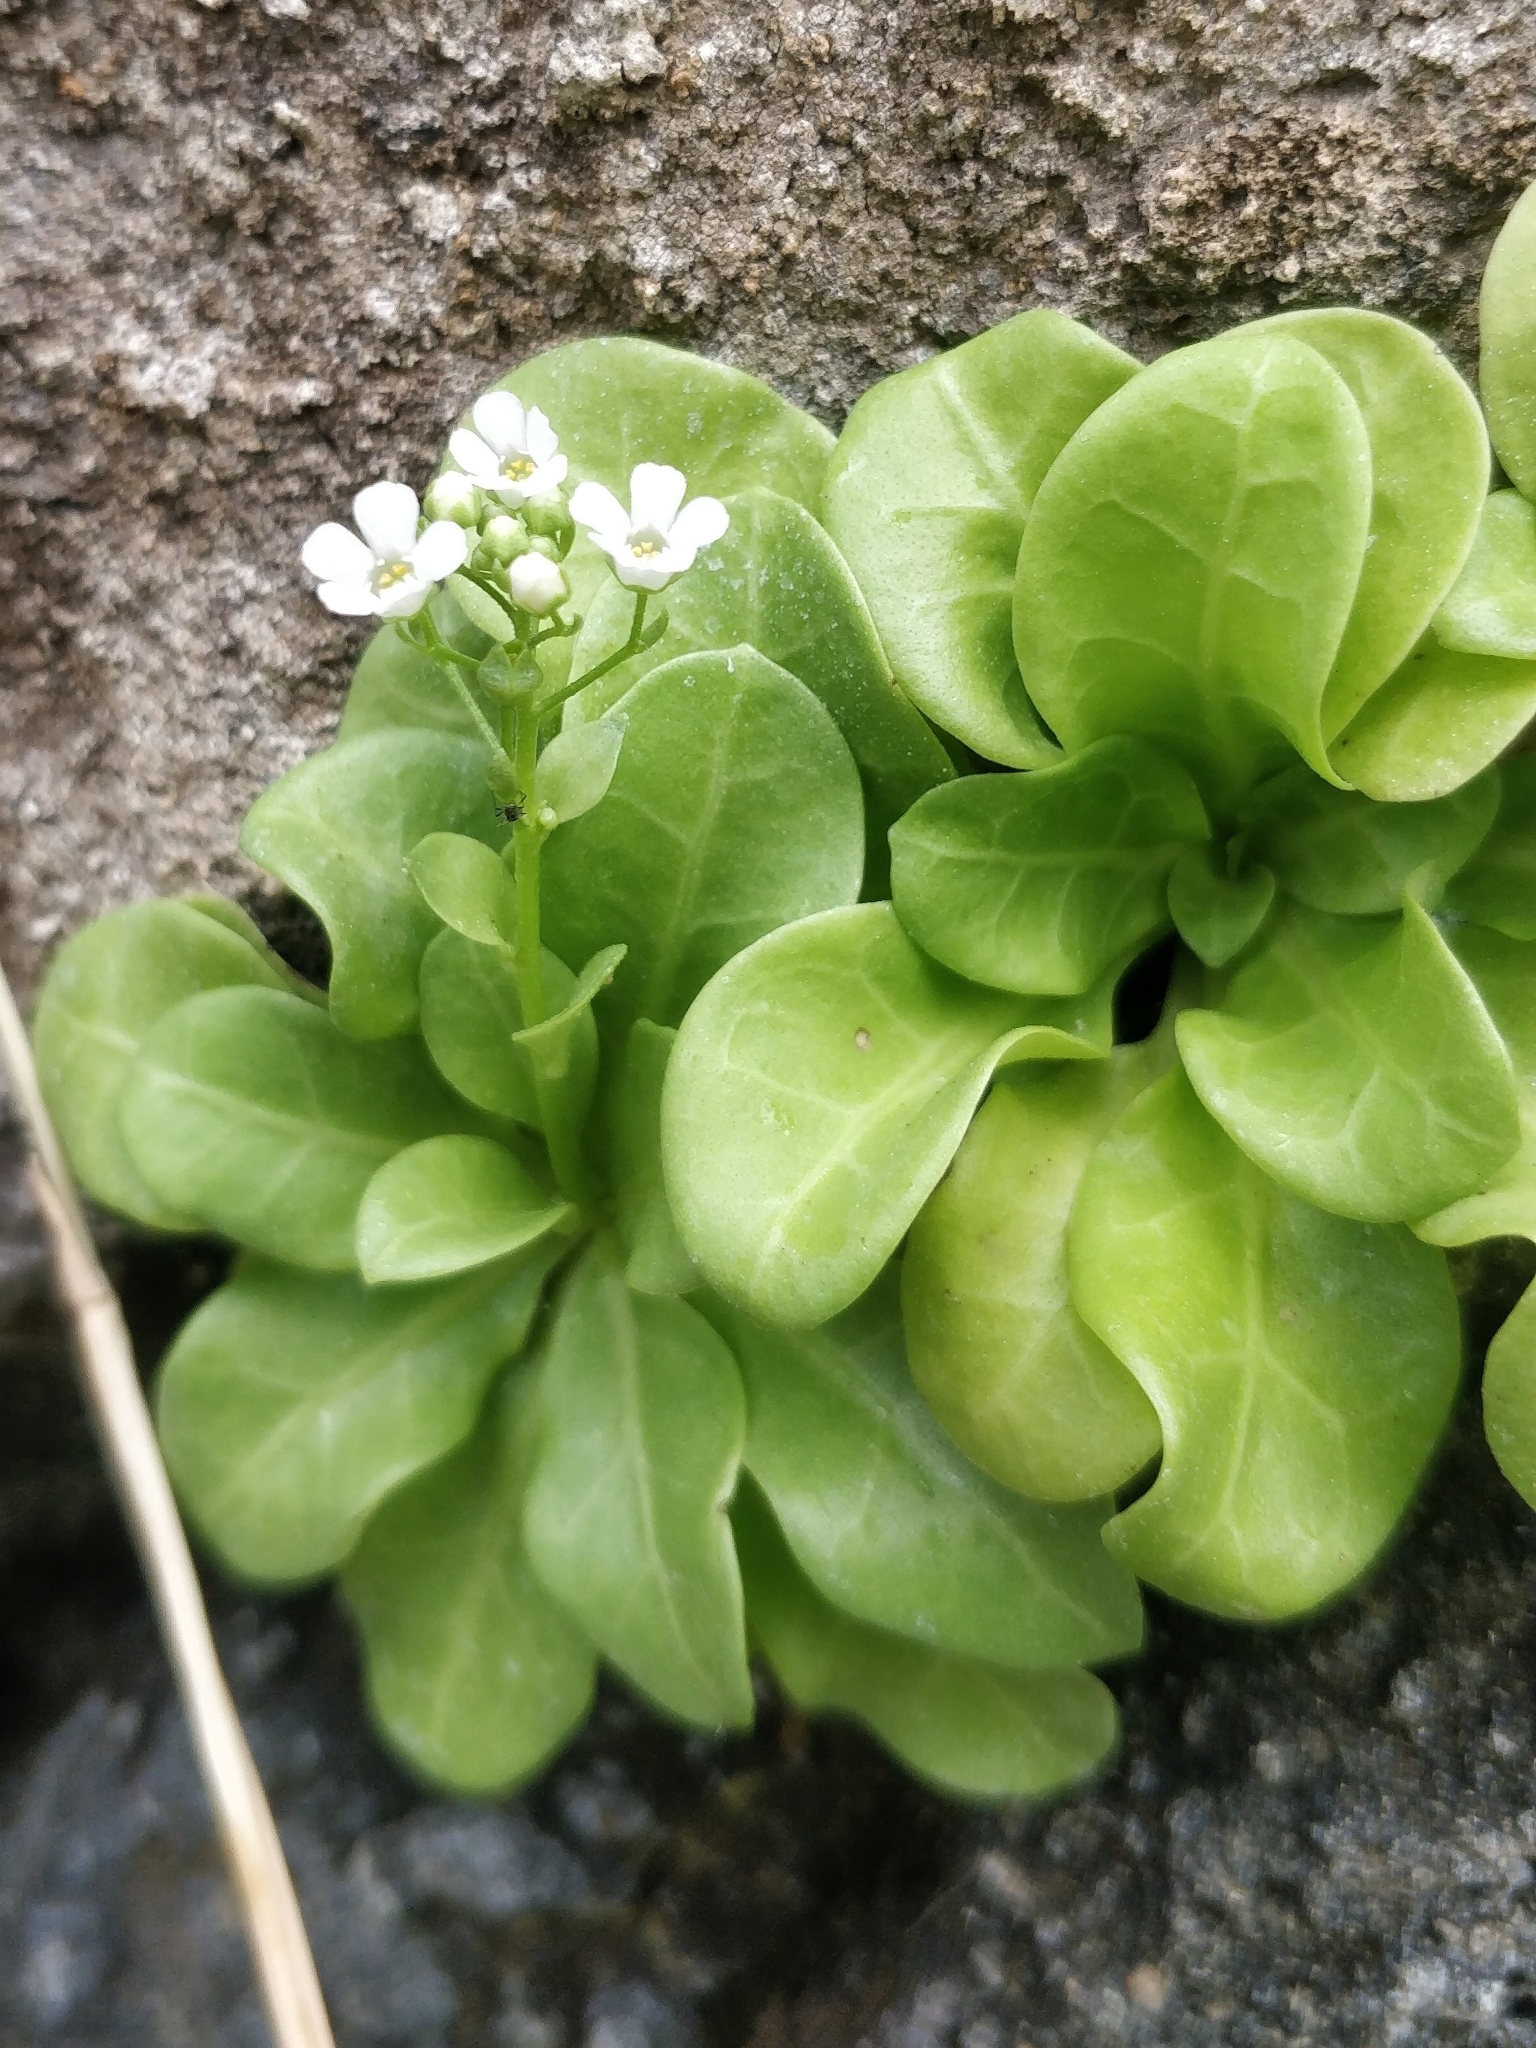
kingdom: Plantae
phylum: Tracheophyta
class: Magnoliopsida
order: Ericales
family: Primulaceae
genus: Samolus
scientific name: Samolus valerandi
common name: Brookweed
